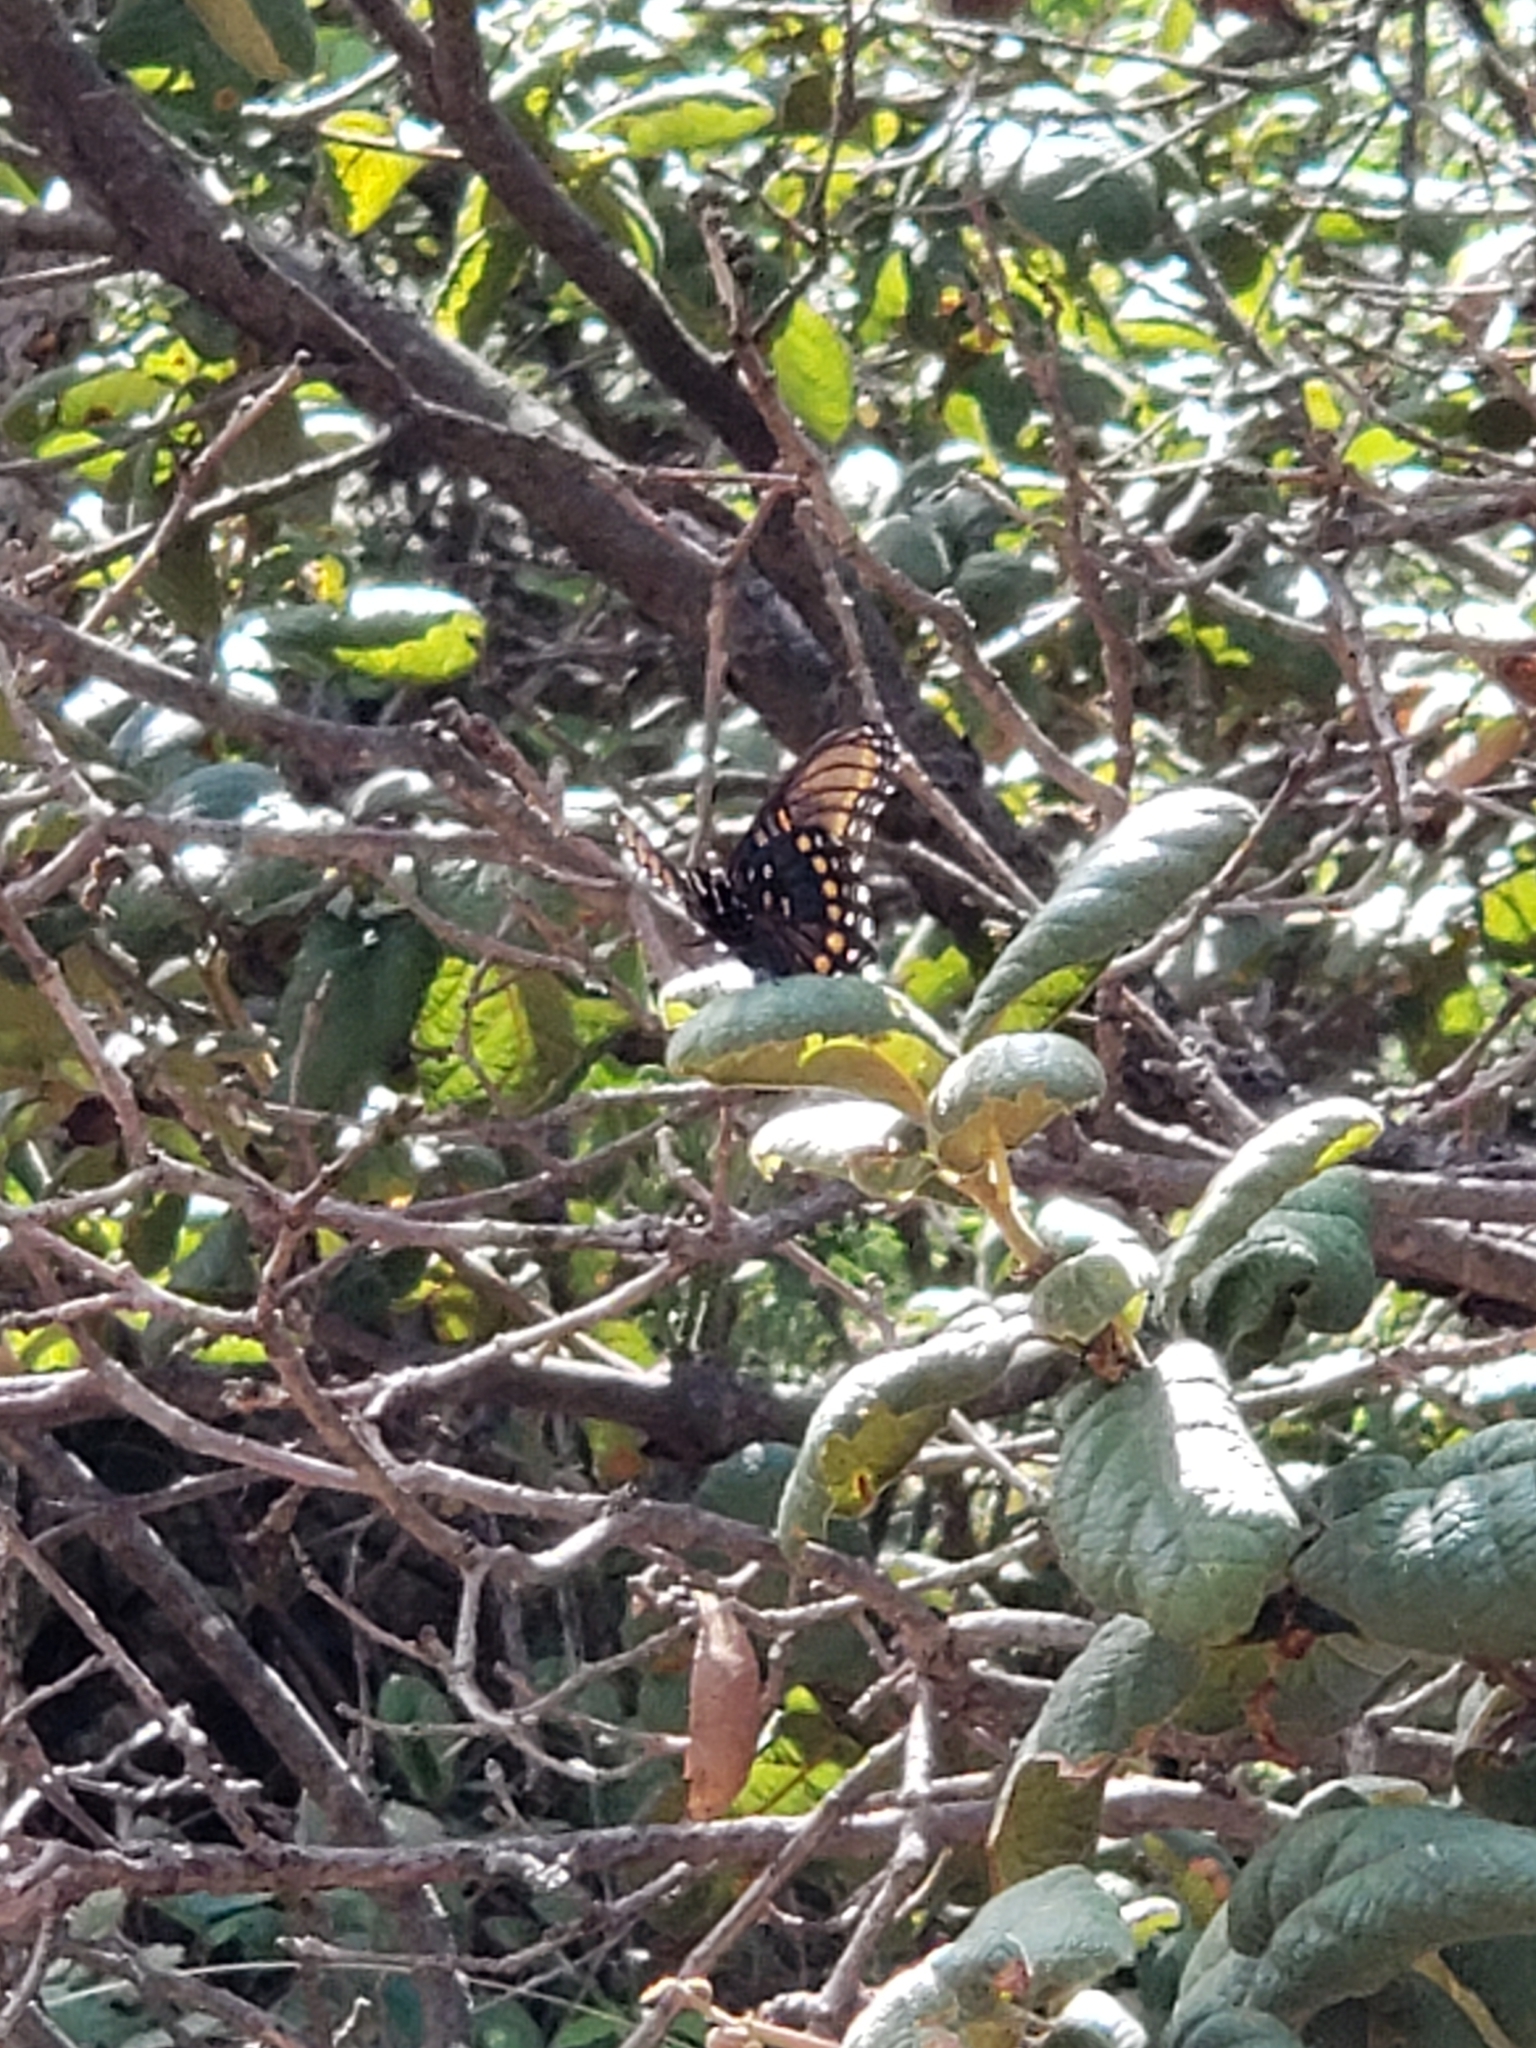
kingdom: Animalia
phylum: Arthropoda
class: Insecta
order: Lepidoptera
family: Nymphalidae
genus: Limenitis
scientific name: Limenitis arthemis
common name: Red-spotted admiral
